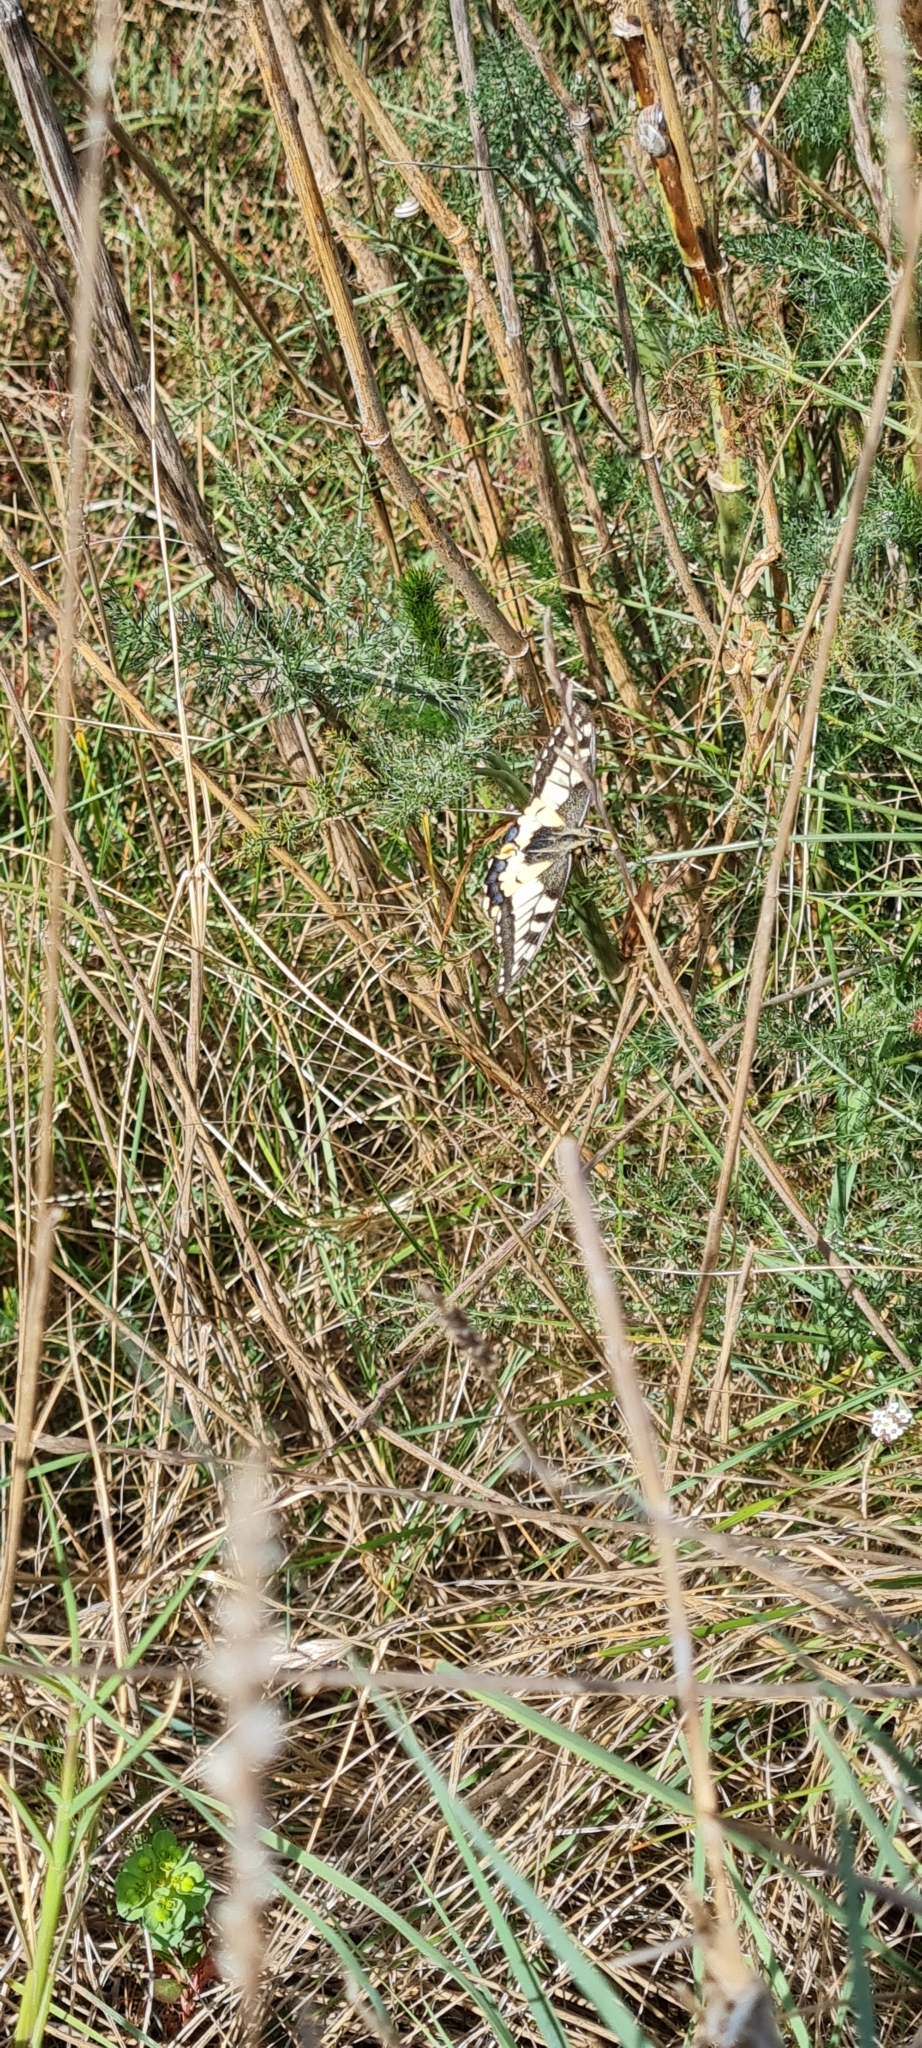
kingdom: Animalia
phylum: Arthropoda
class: Insecta
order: Lepidoptera
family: Papilionidae
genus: Papilio
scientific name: Papilio machaon
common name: Swallowtail
